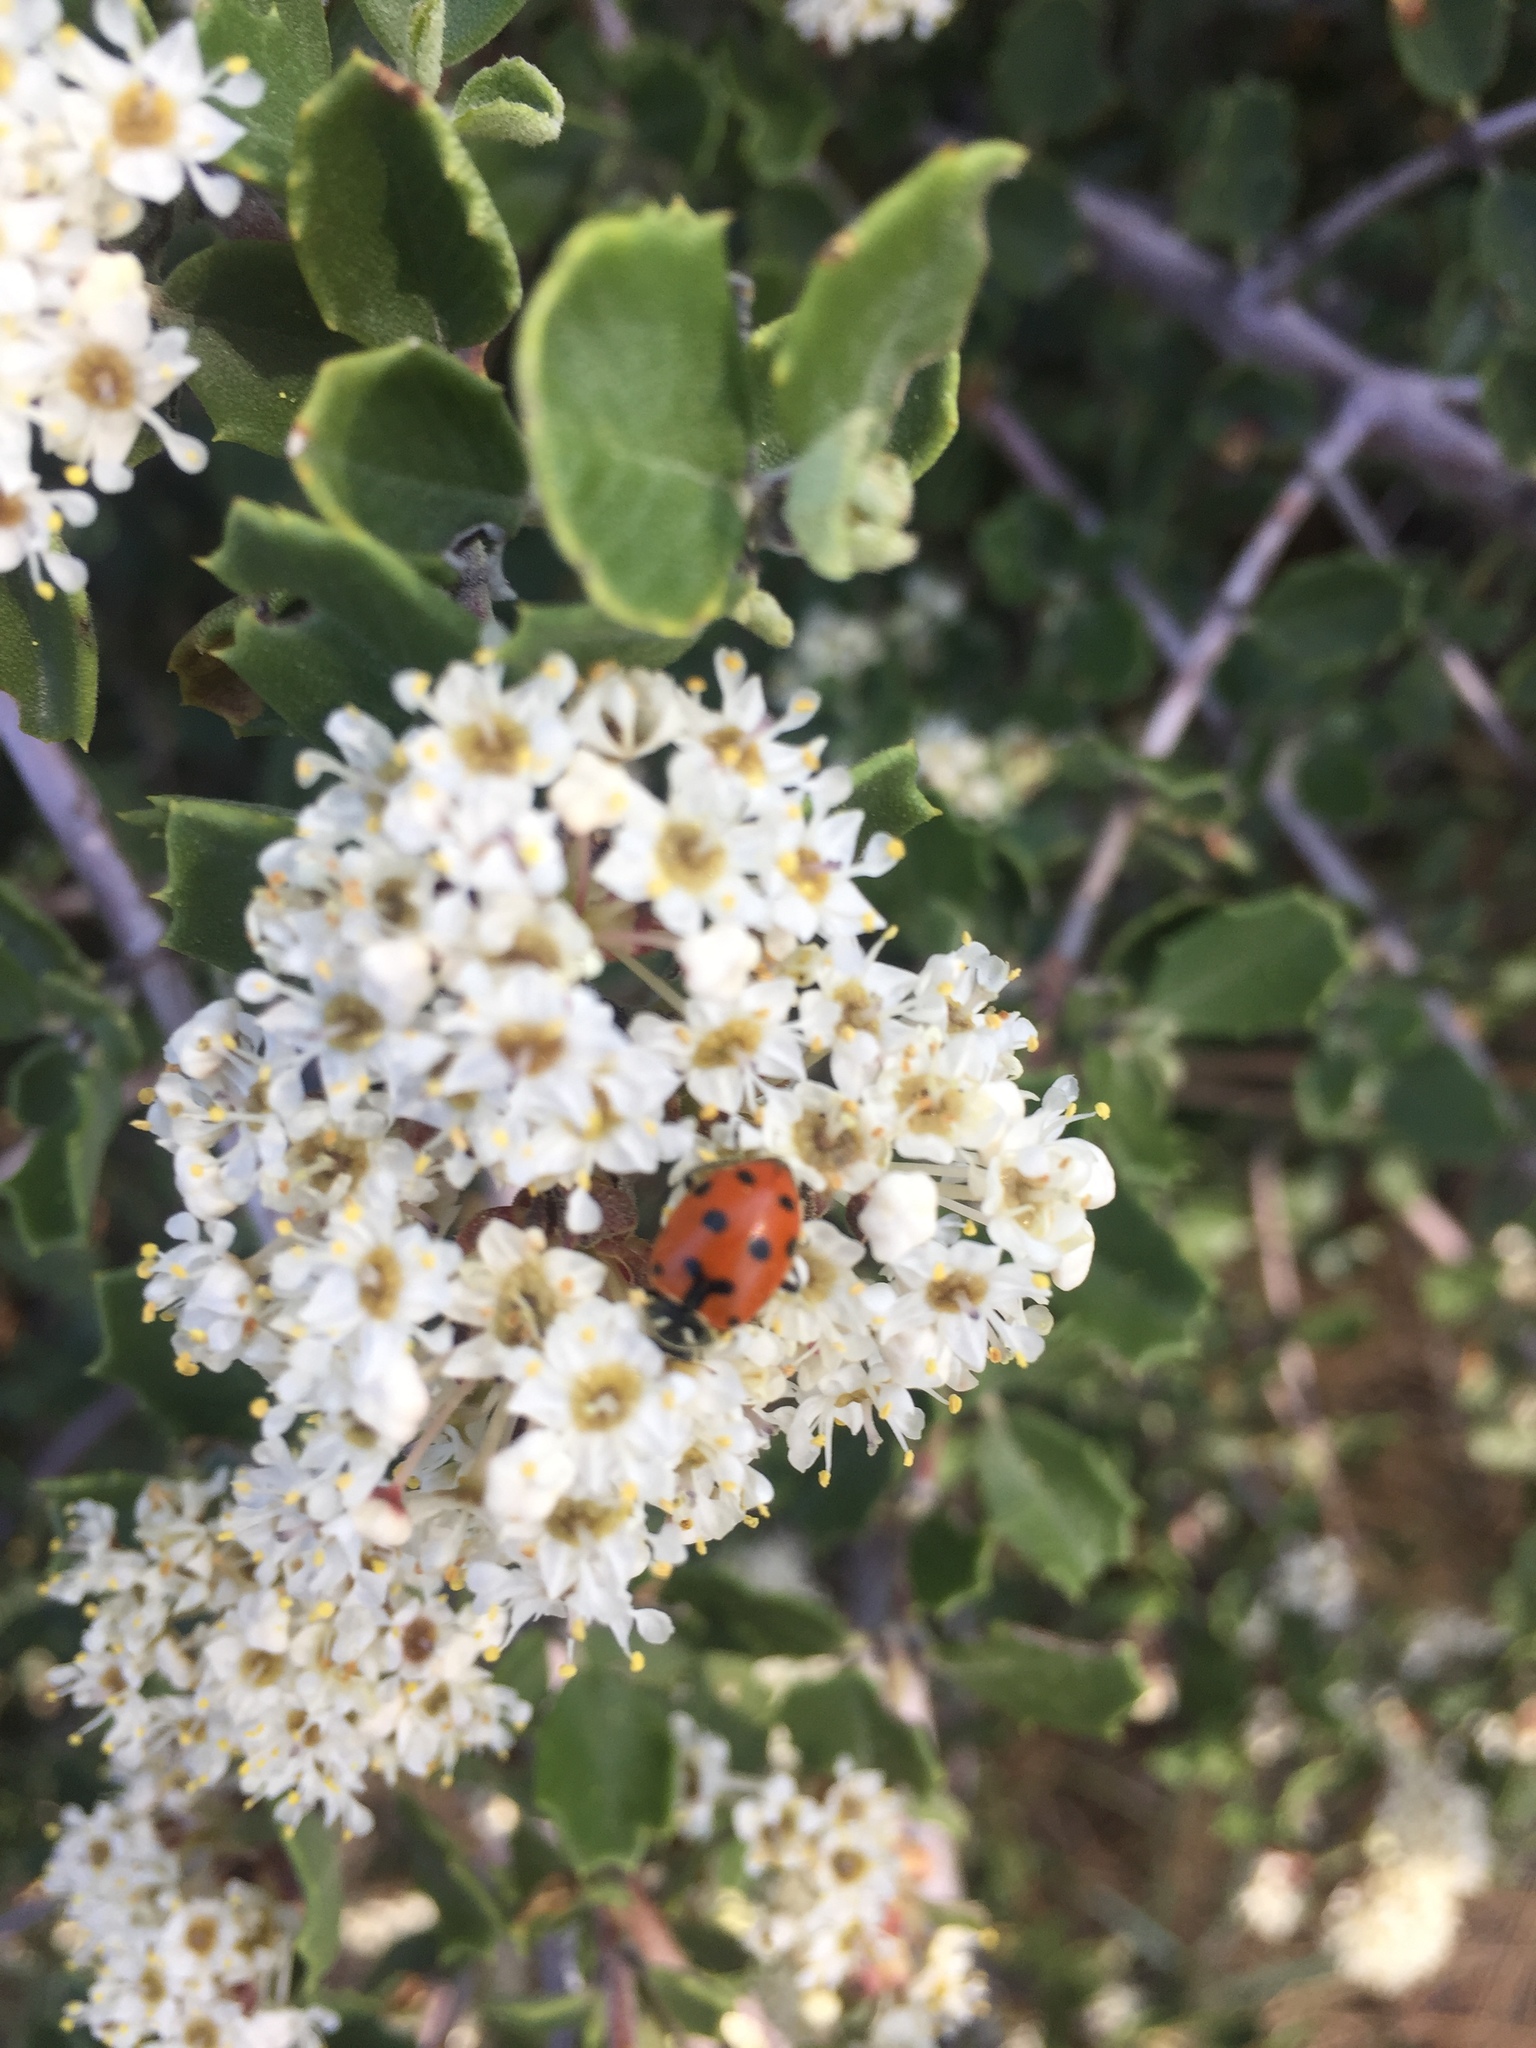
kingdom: Animalia
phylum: Arthropoda
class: Insecta
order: Coleoptera
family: Coccinellidae
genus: Hippodamia
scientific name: Hippodamia convergens
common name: Convergent lady beetle
